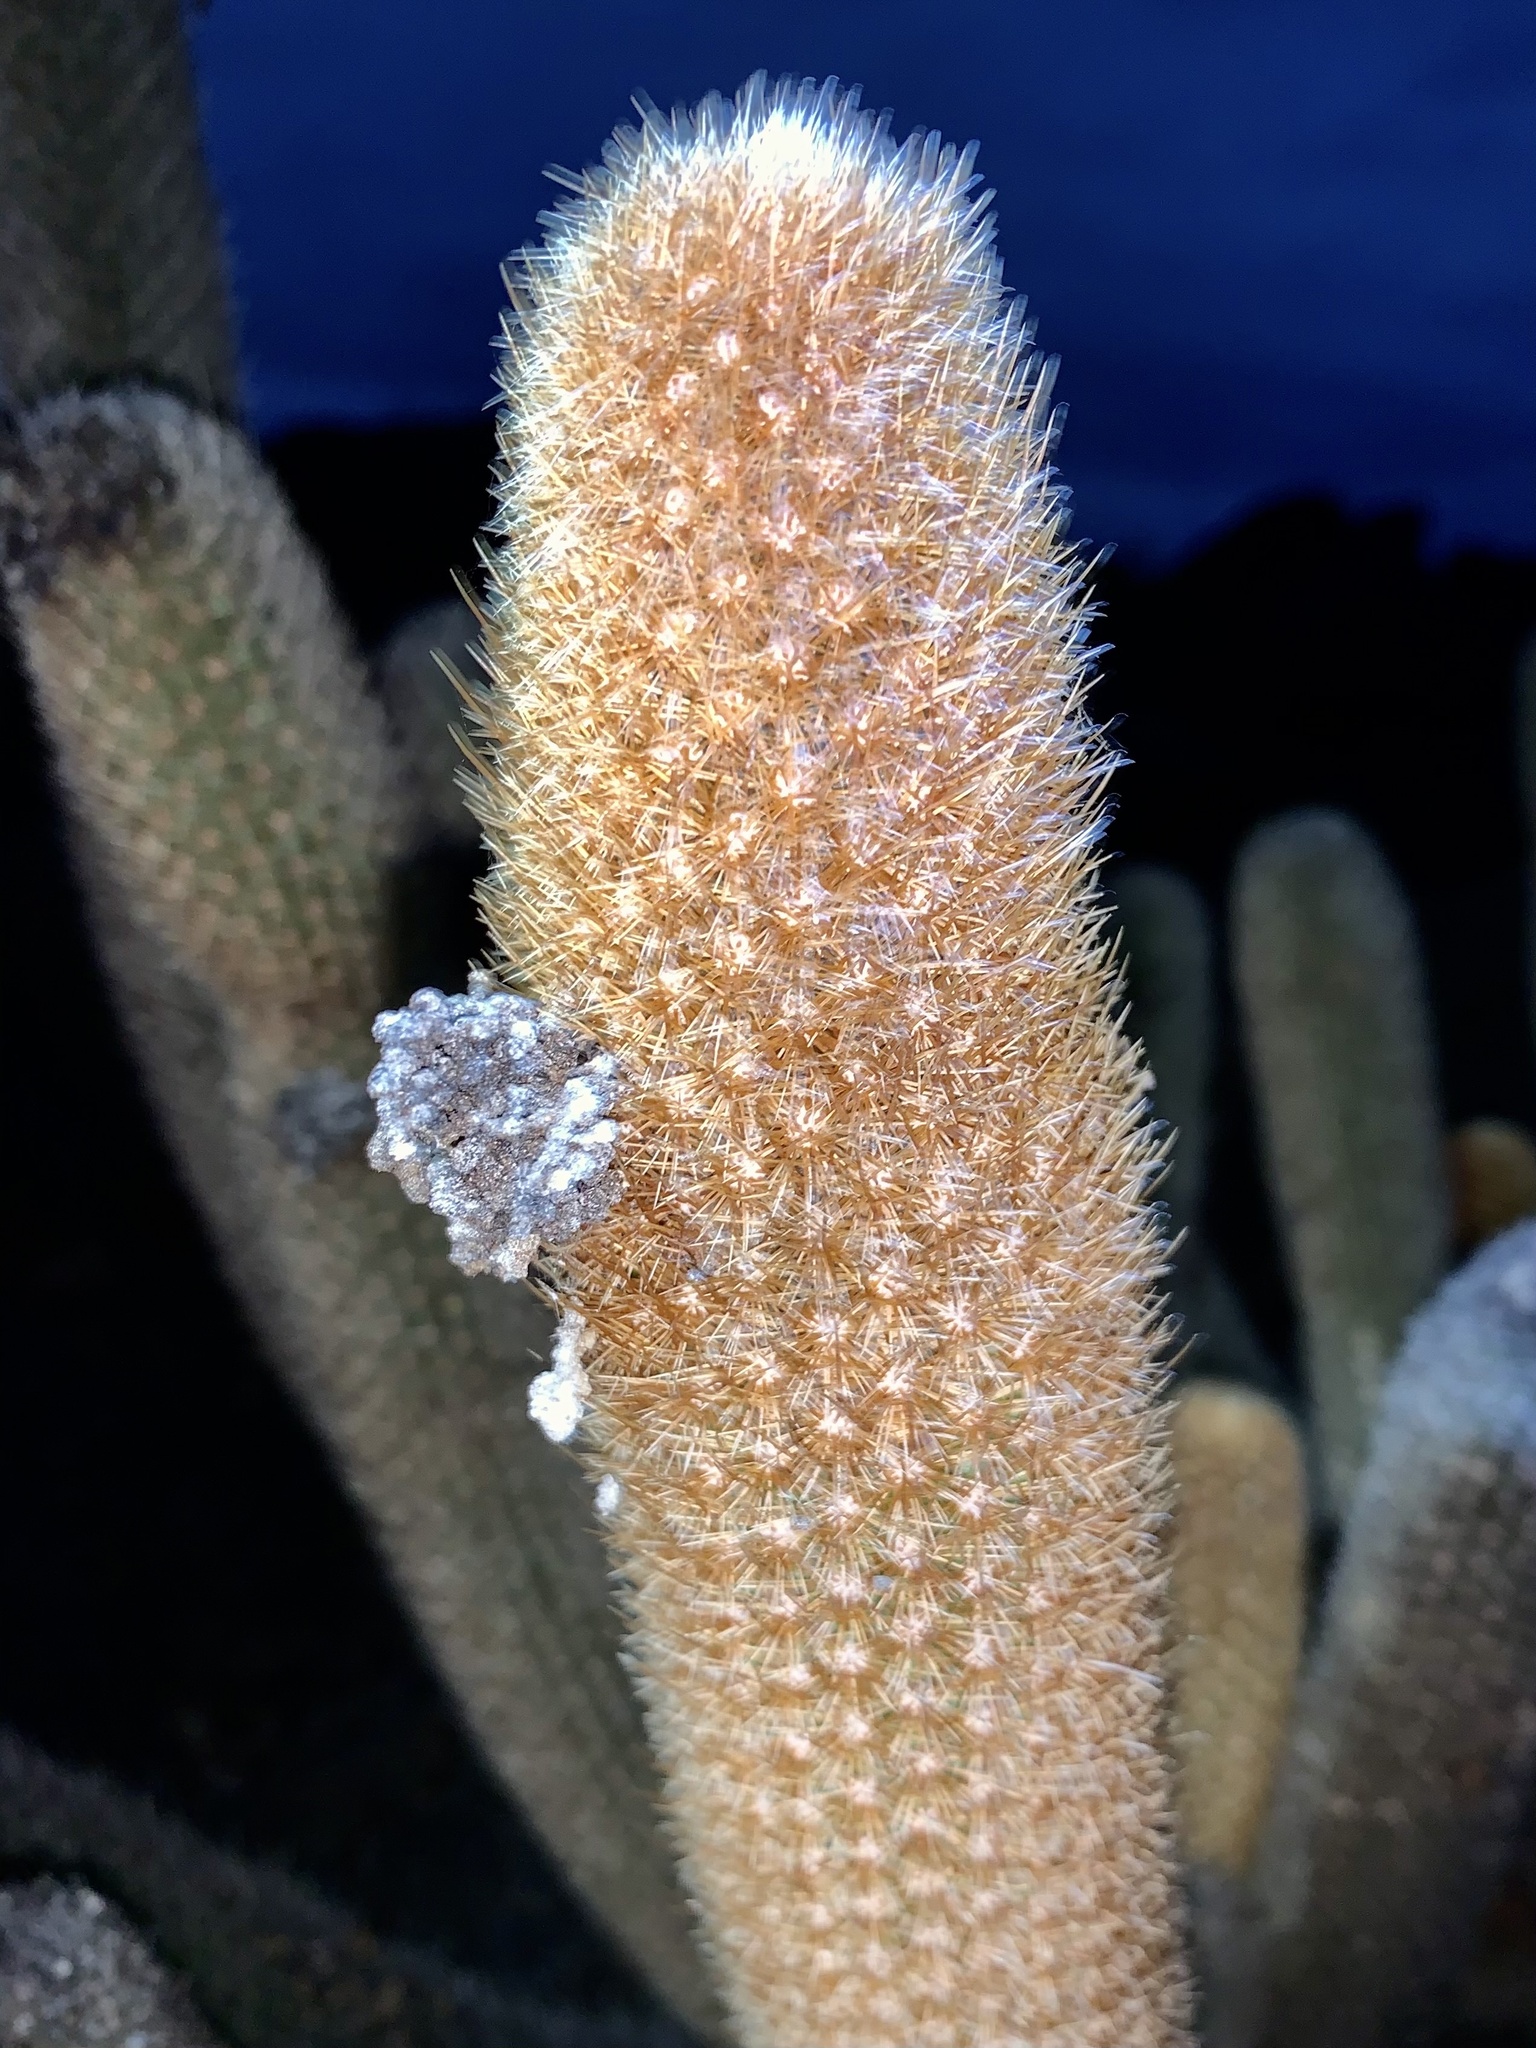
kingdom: Plantae
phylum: Tracheophyta
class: Magnoliopsida
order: Caryophyllales
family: Cactaceae
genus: Brachycereus
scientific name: Brachycereus nesioticus
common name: Lava cactus
